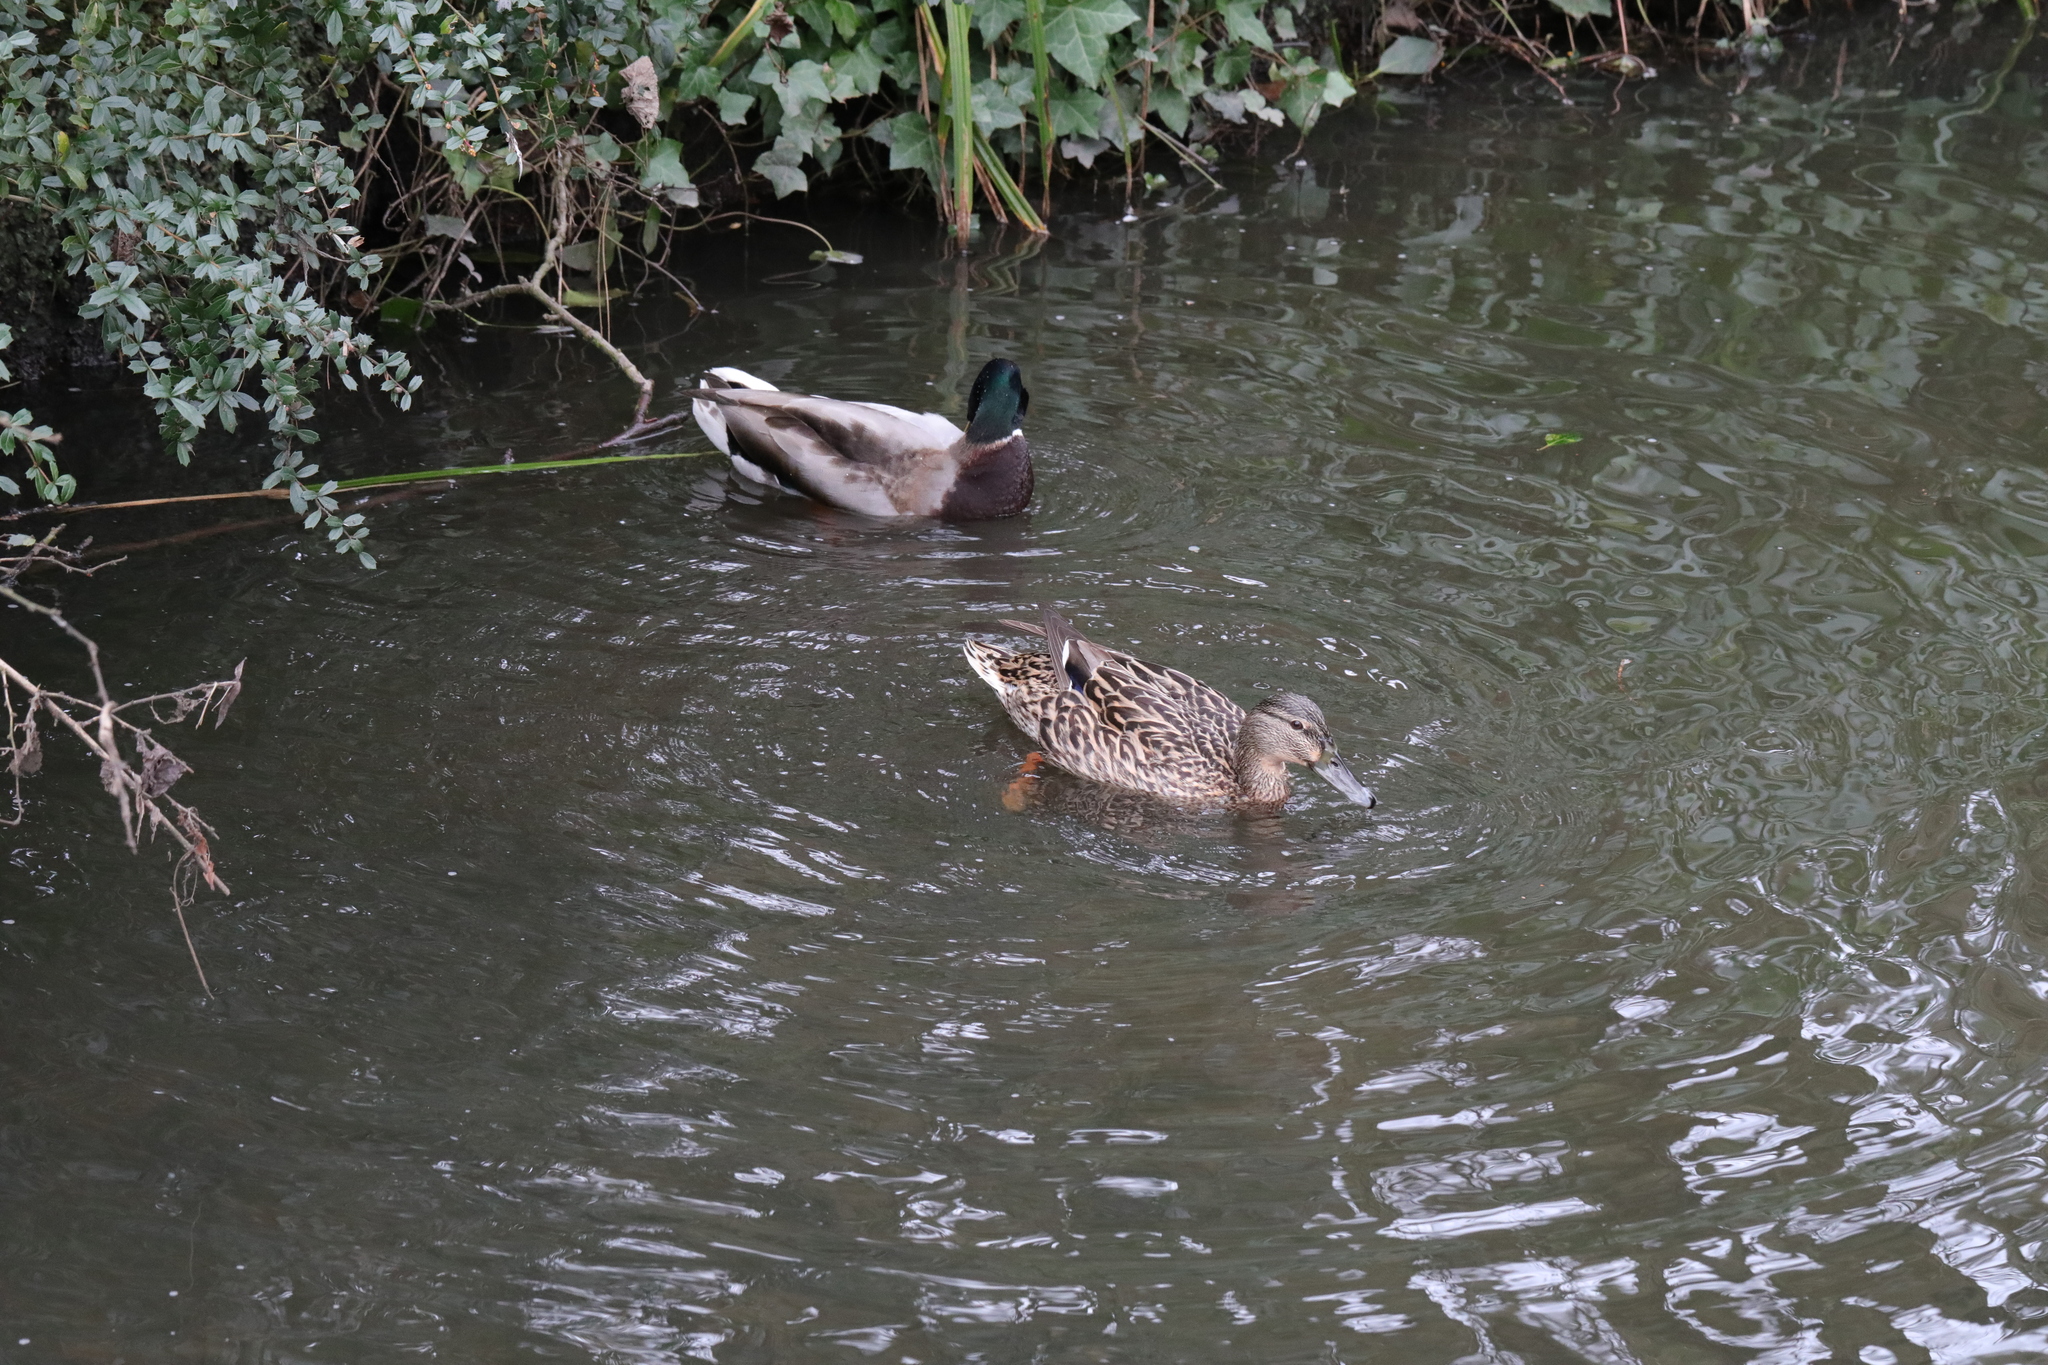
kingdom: Animalia
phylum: Chordata
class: Aves
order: Anseriformes
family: Anatidae
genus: Anas
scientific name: Anas platyrhynchos
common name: Mallard
